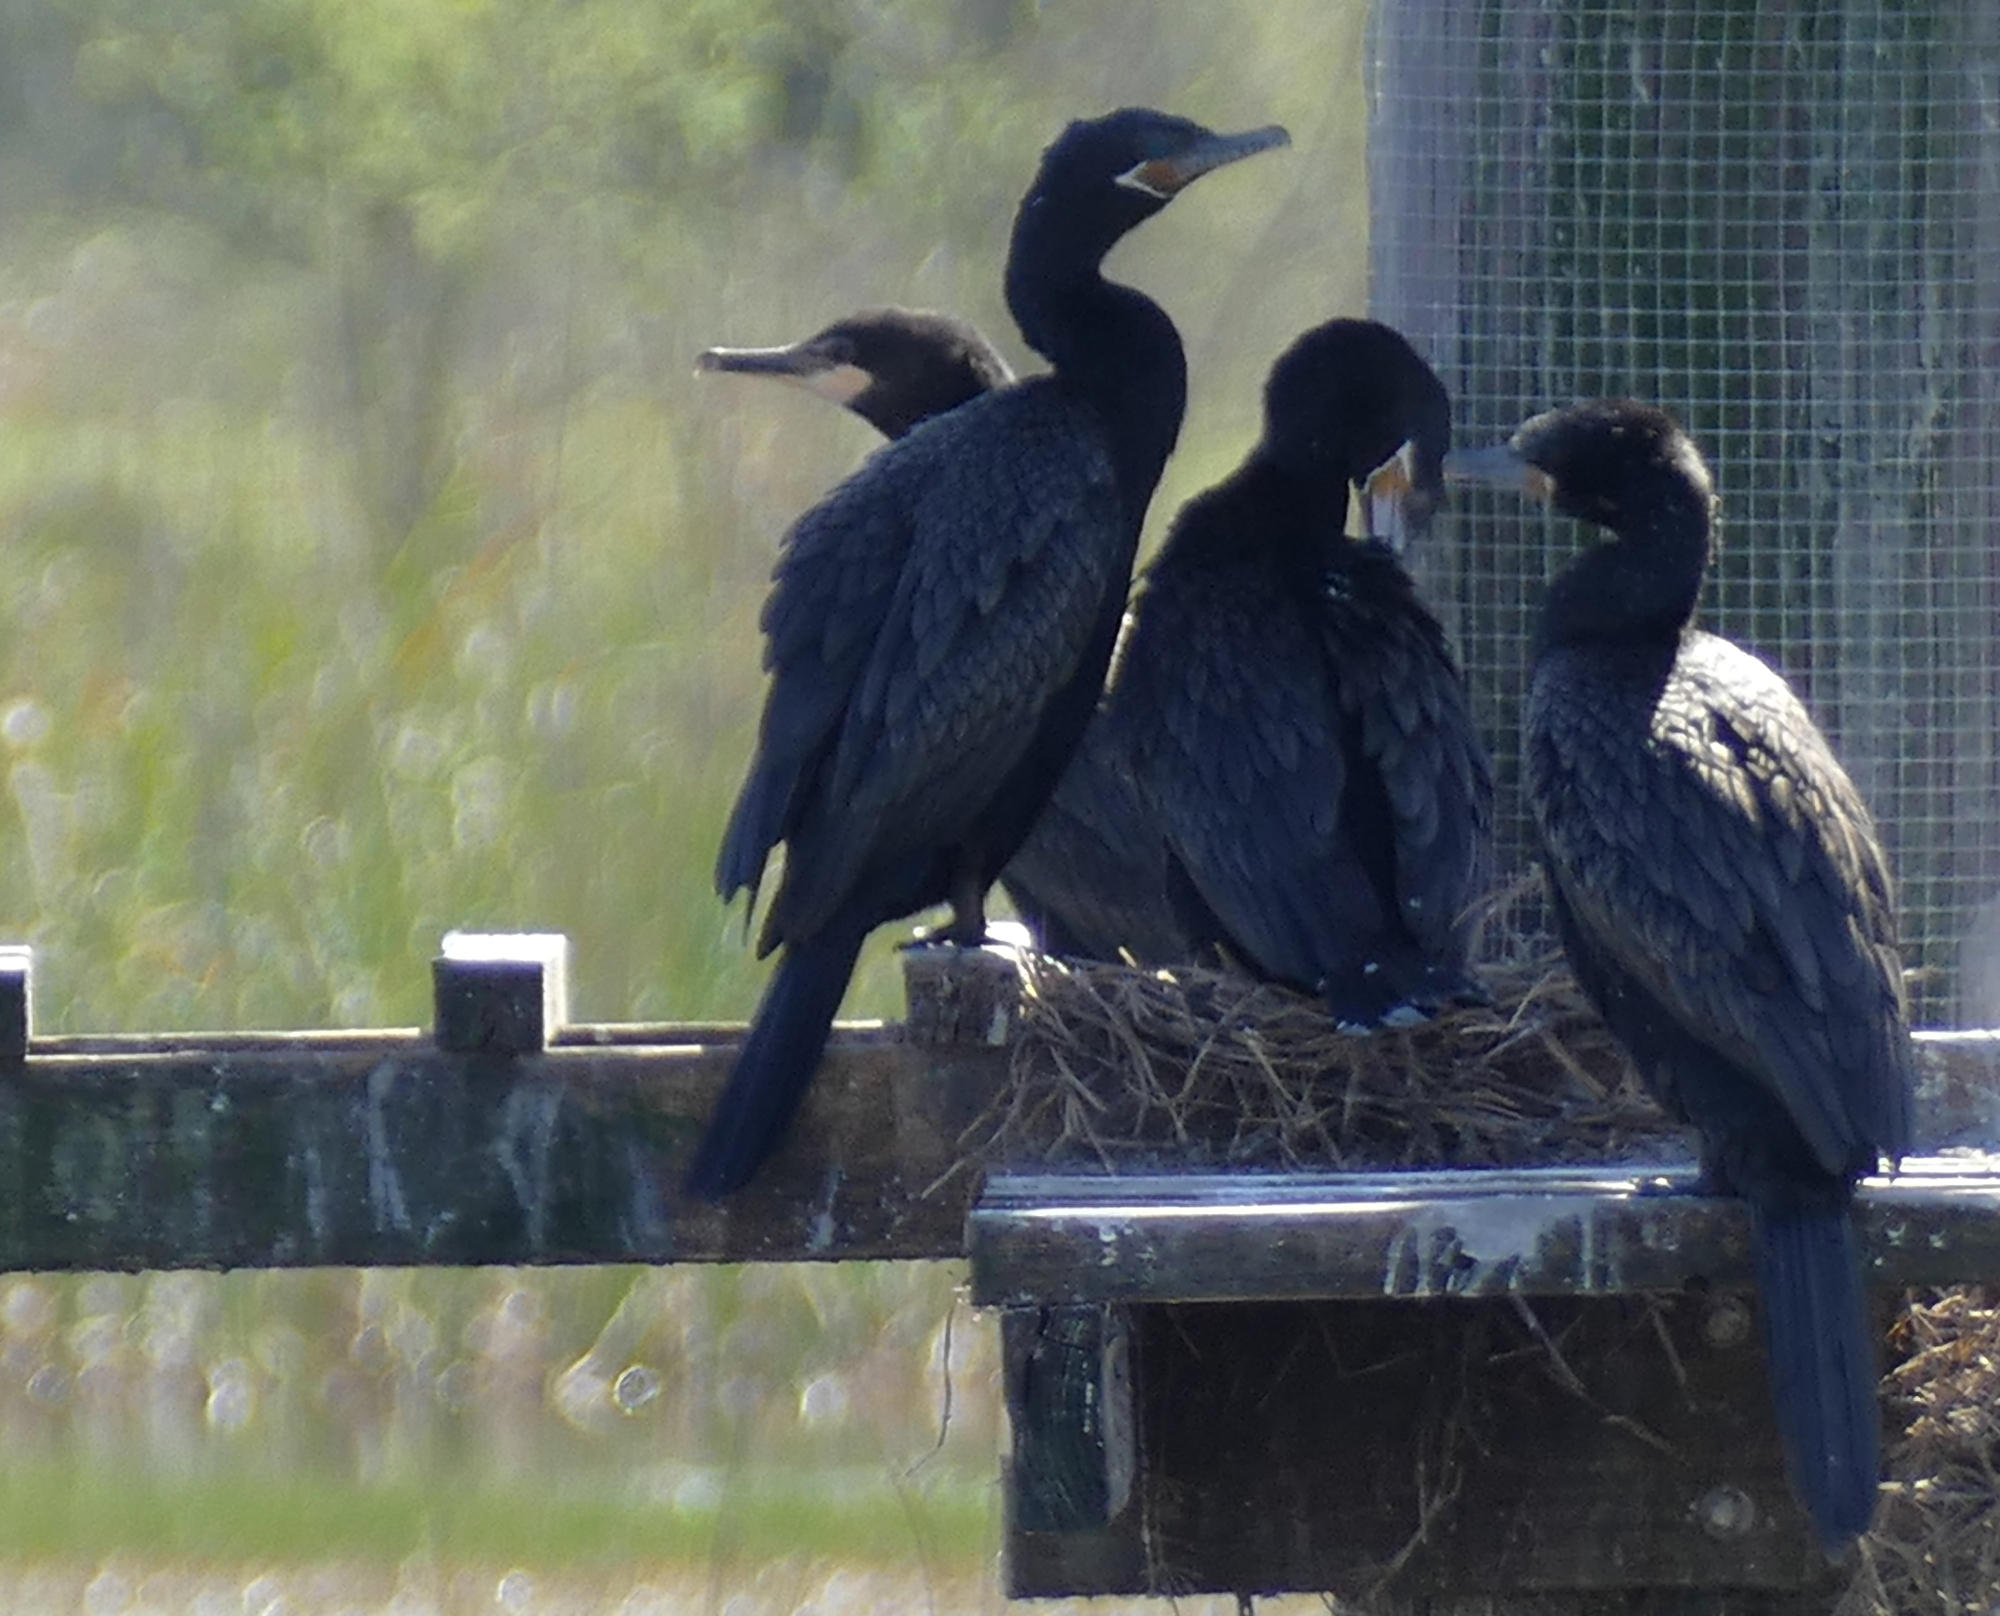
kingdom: Animalia
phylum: Chordata
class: Aves
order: Suliformes
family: Phalacrocoracidae
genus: Phalacrocorax
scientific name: Phalacrocorax brasilianus
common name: Neotropic cormorant
